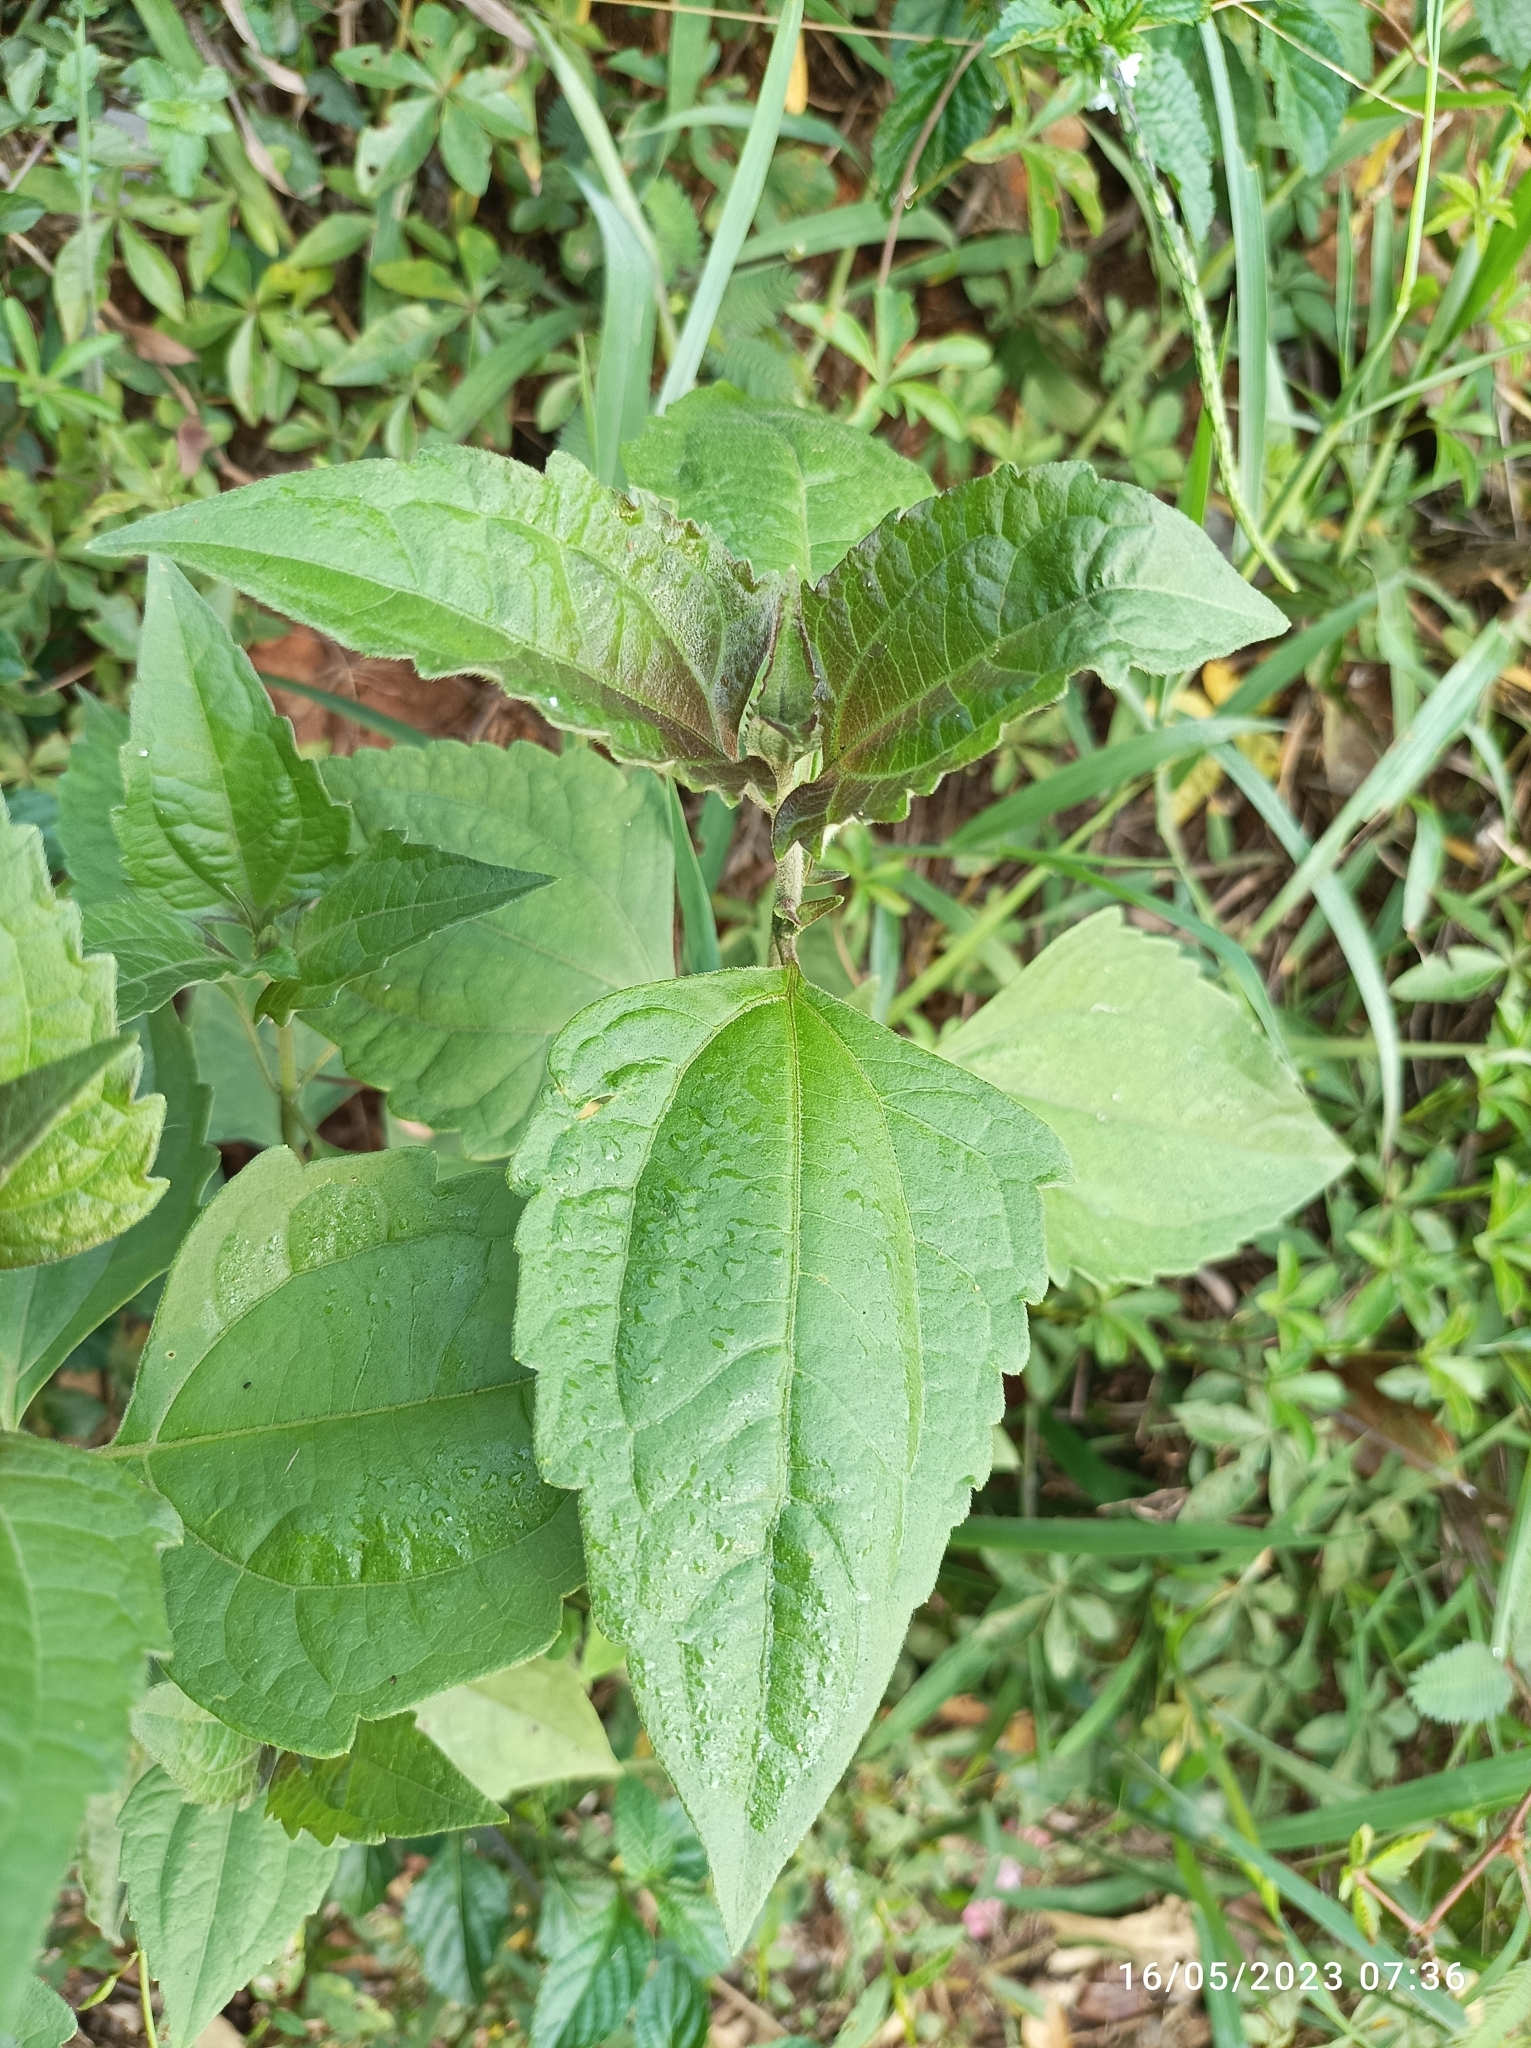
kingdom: Plantae
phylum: Tracheophyta
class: Magnoliopsida
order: Asterales
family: Asteraceae
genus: Chromolaena
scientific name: Chromolaena odorata
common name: Siamweed
